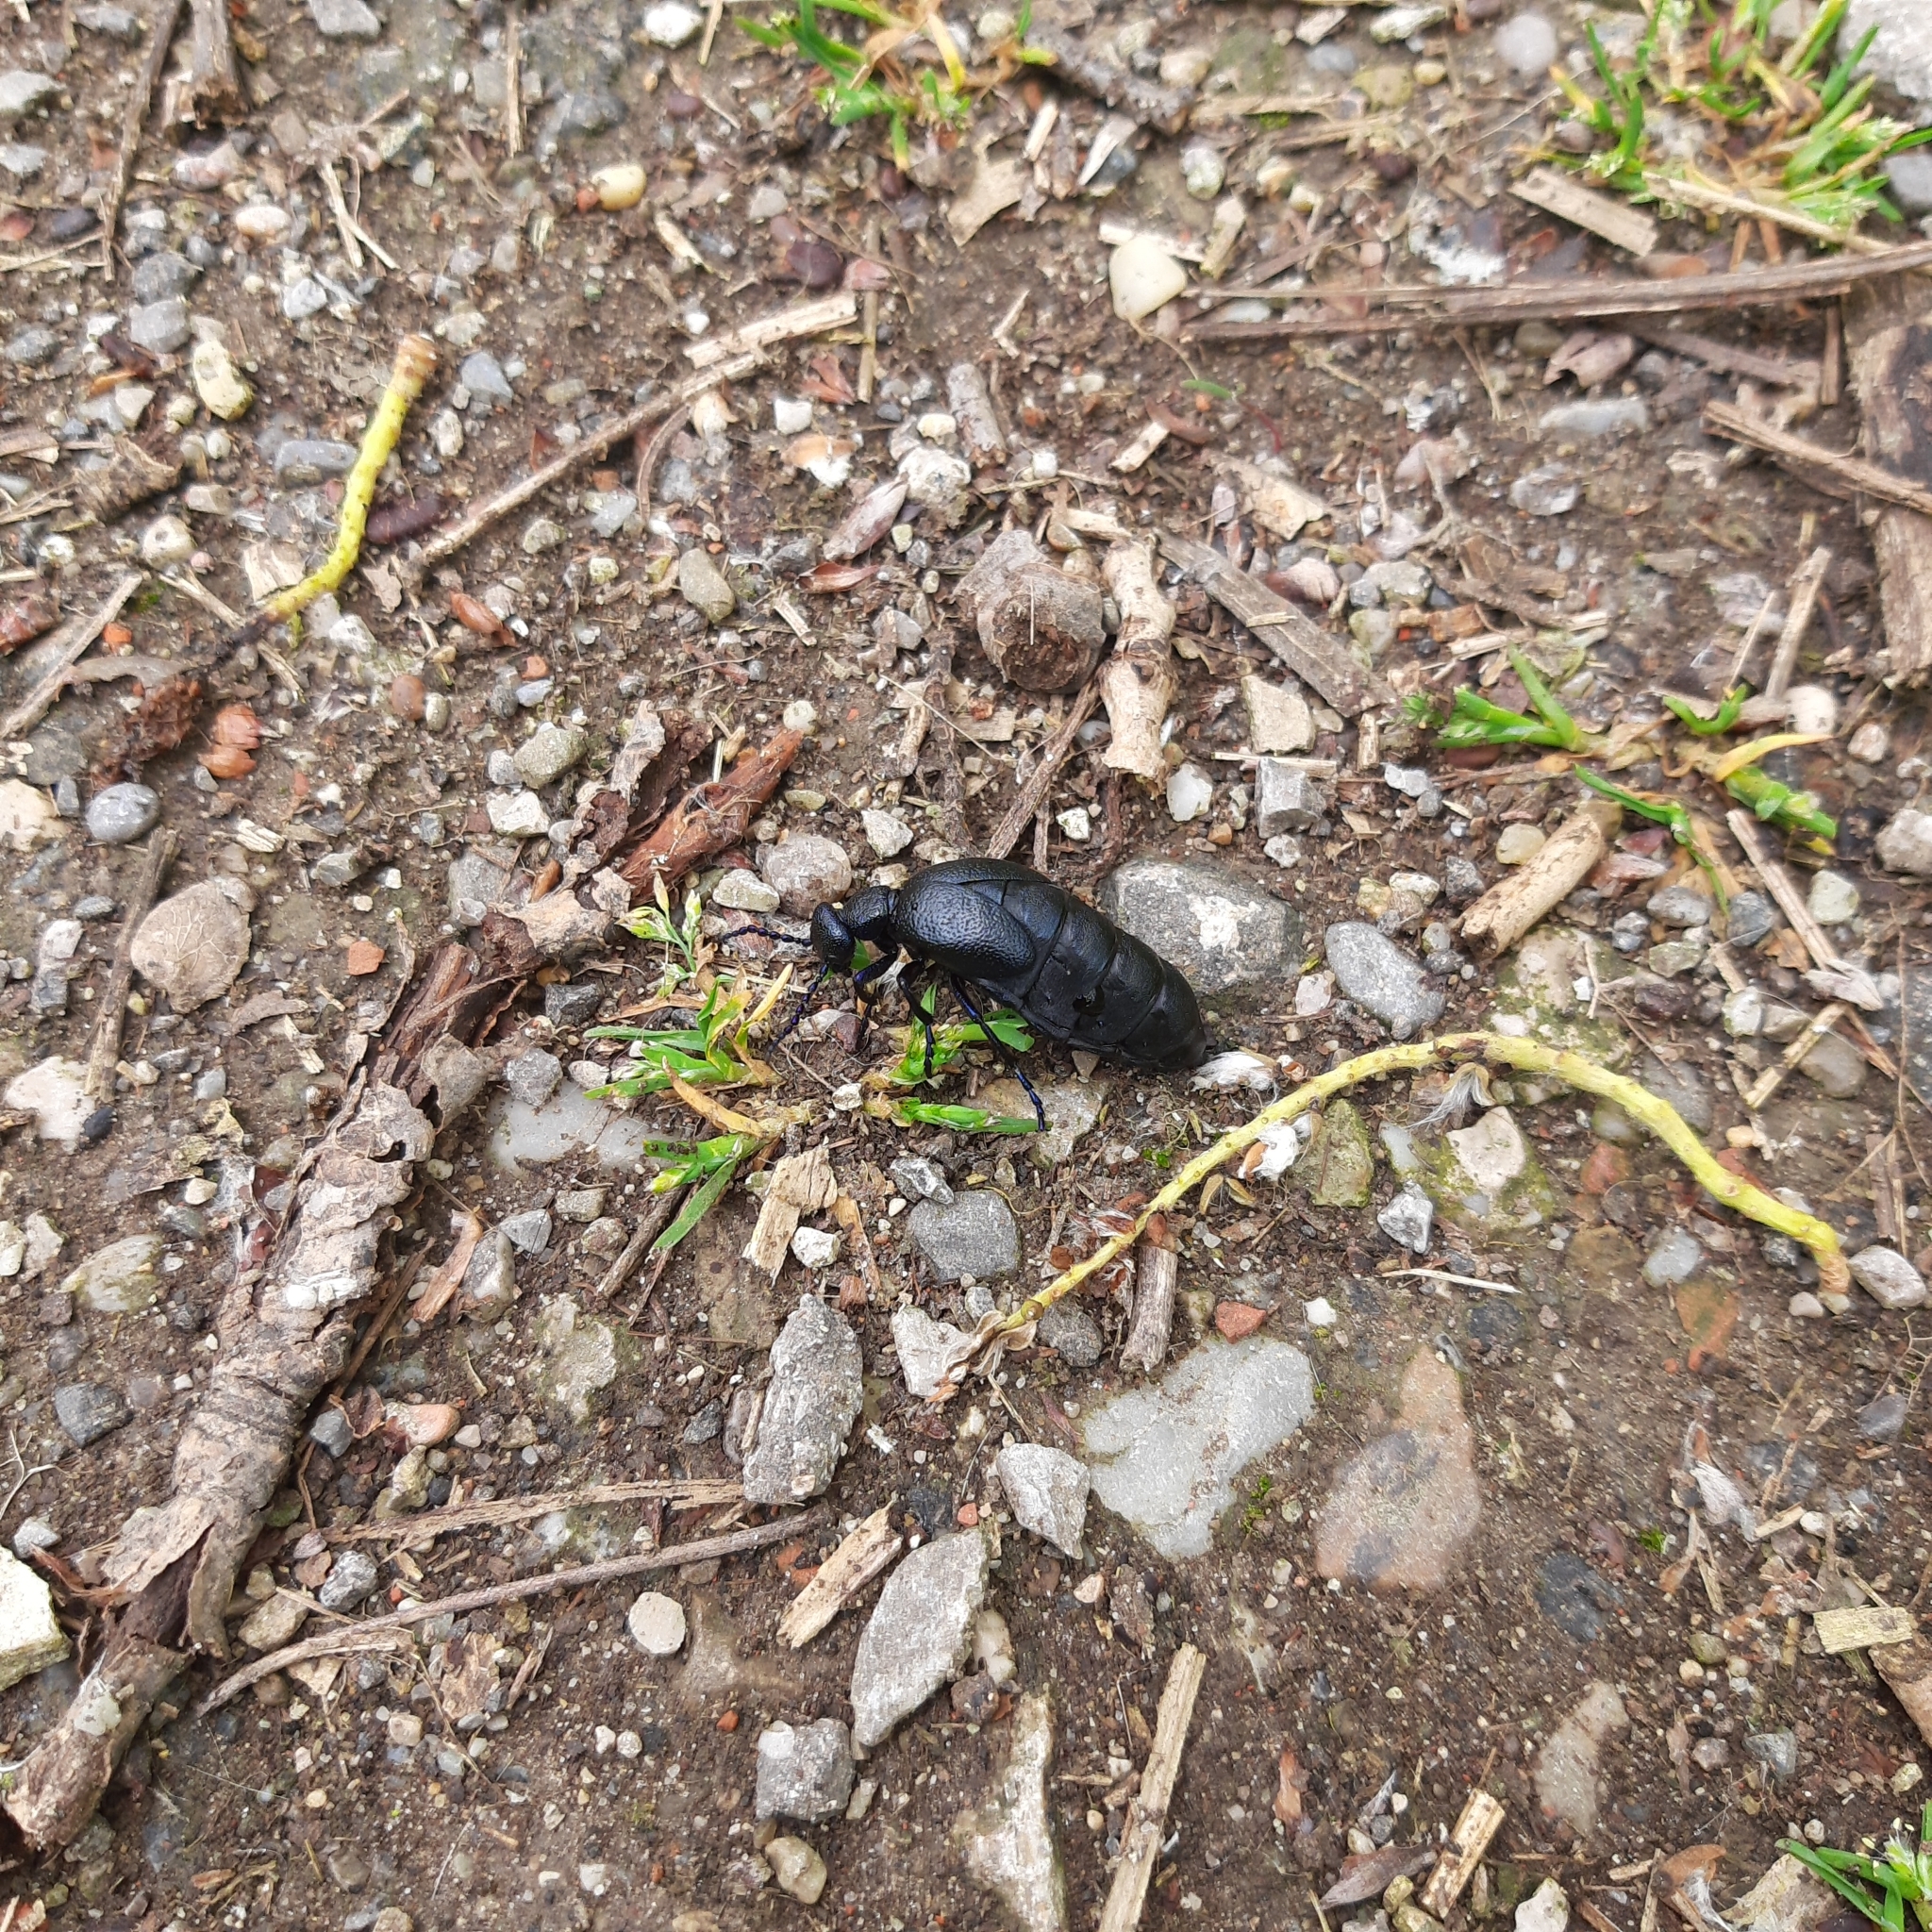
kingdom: Animalia
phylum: Arthropoda
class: Insecta
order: Coleoptera
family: Meloidae
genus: Meloe
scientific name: Meloe proscarabaeus
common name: Black oil-beetle
